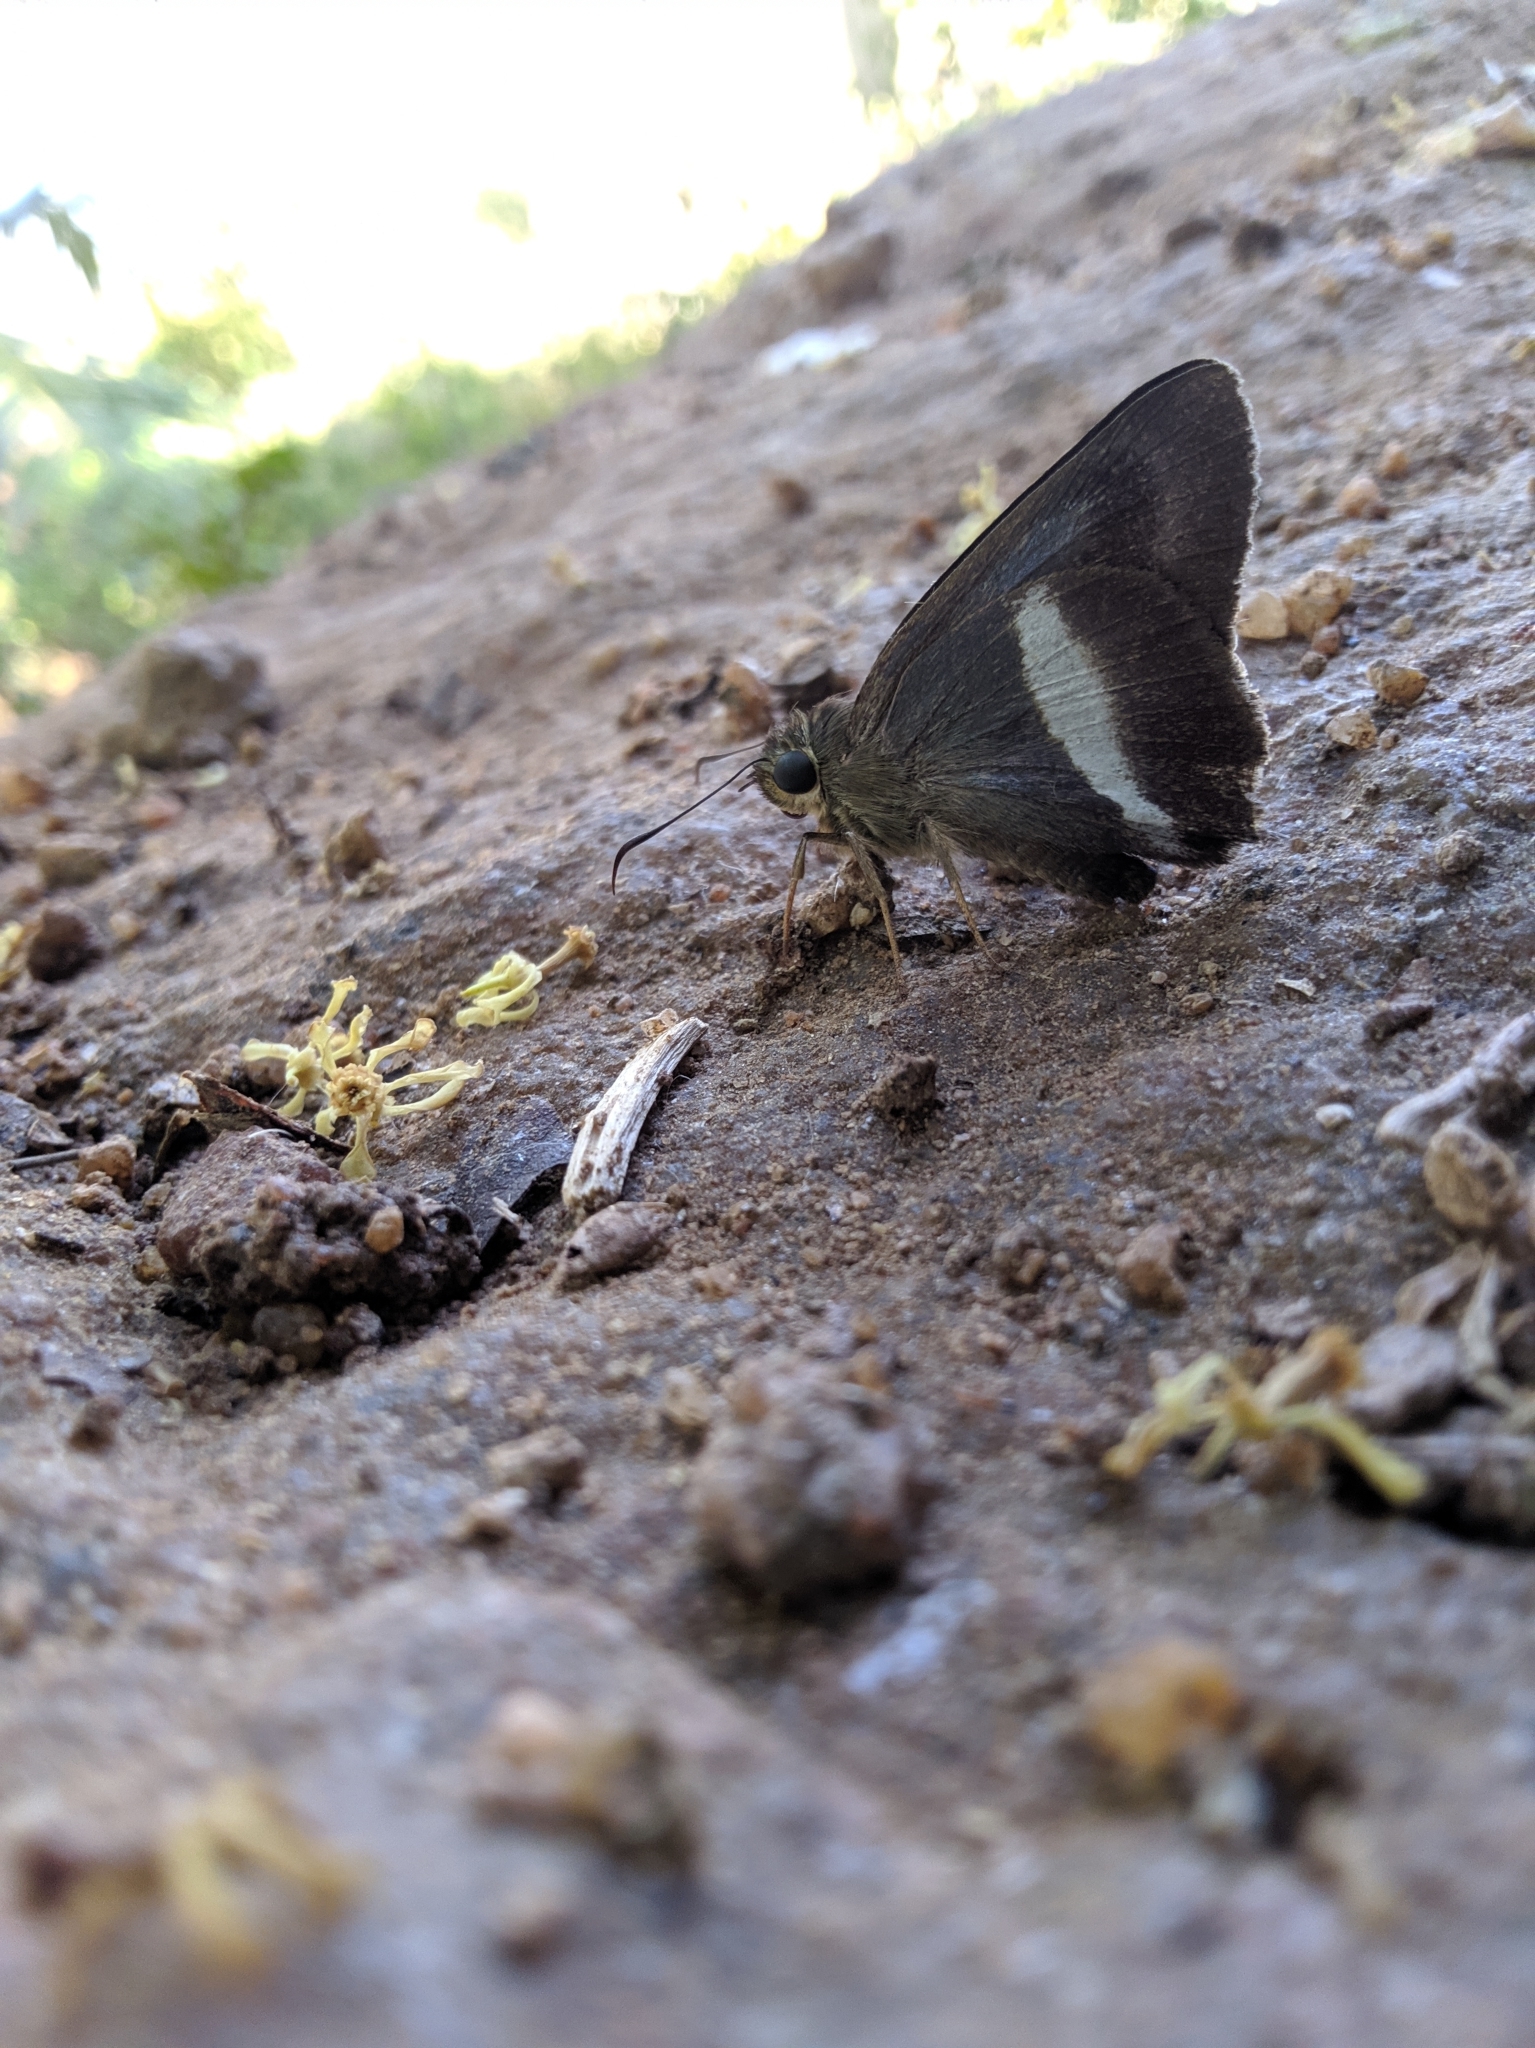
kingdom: Animalia
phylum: Arthropoda
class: Insecta
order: Lepidoptera
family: Hesperiidae
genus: Hasora
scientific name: Hasora taminatus
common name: White banded awl
